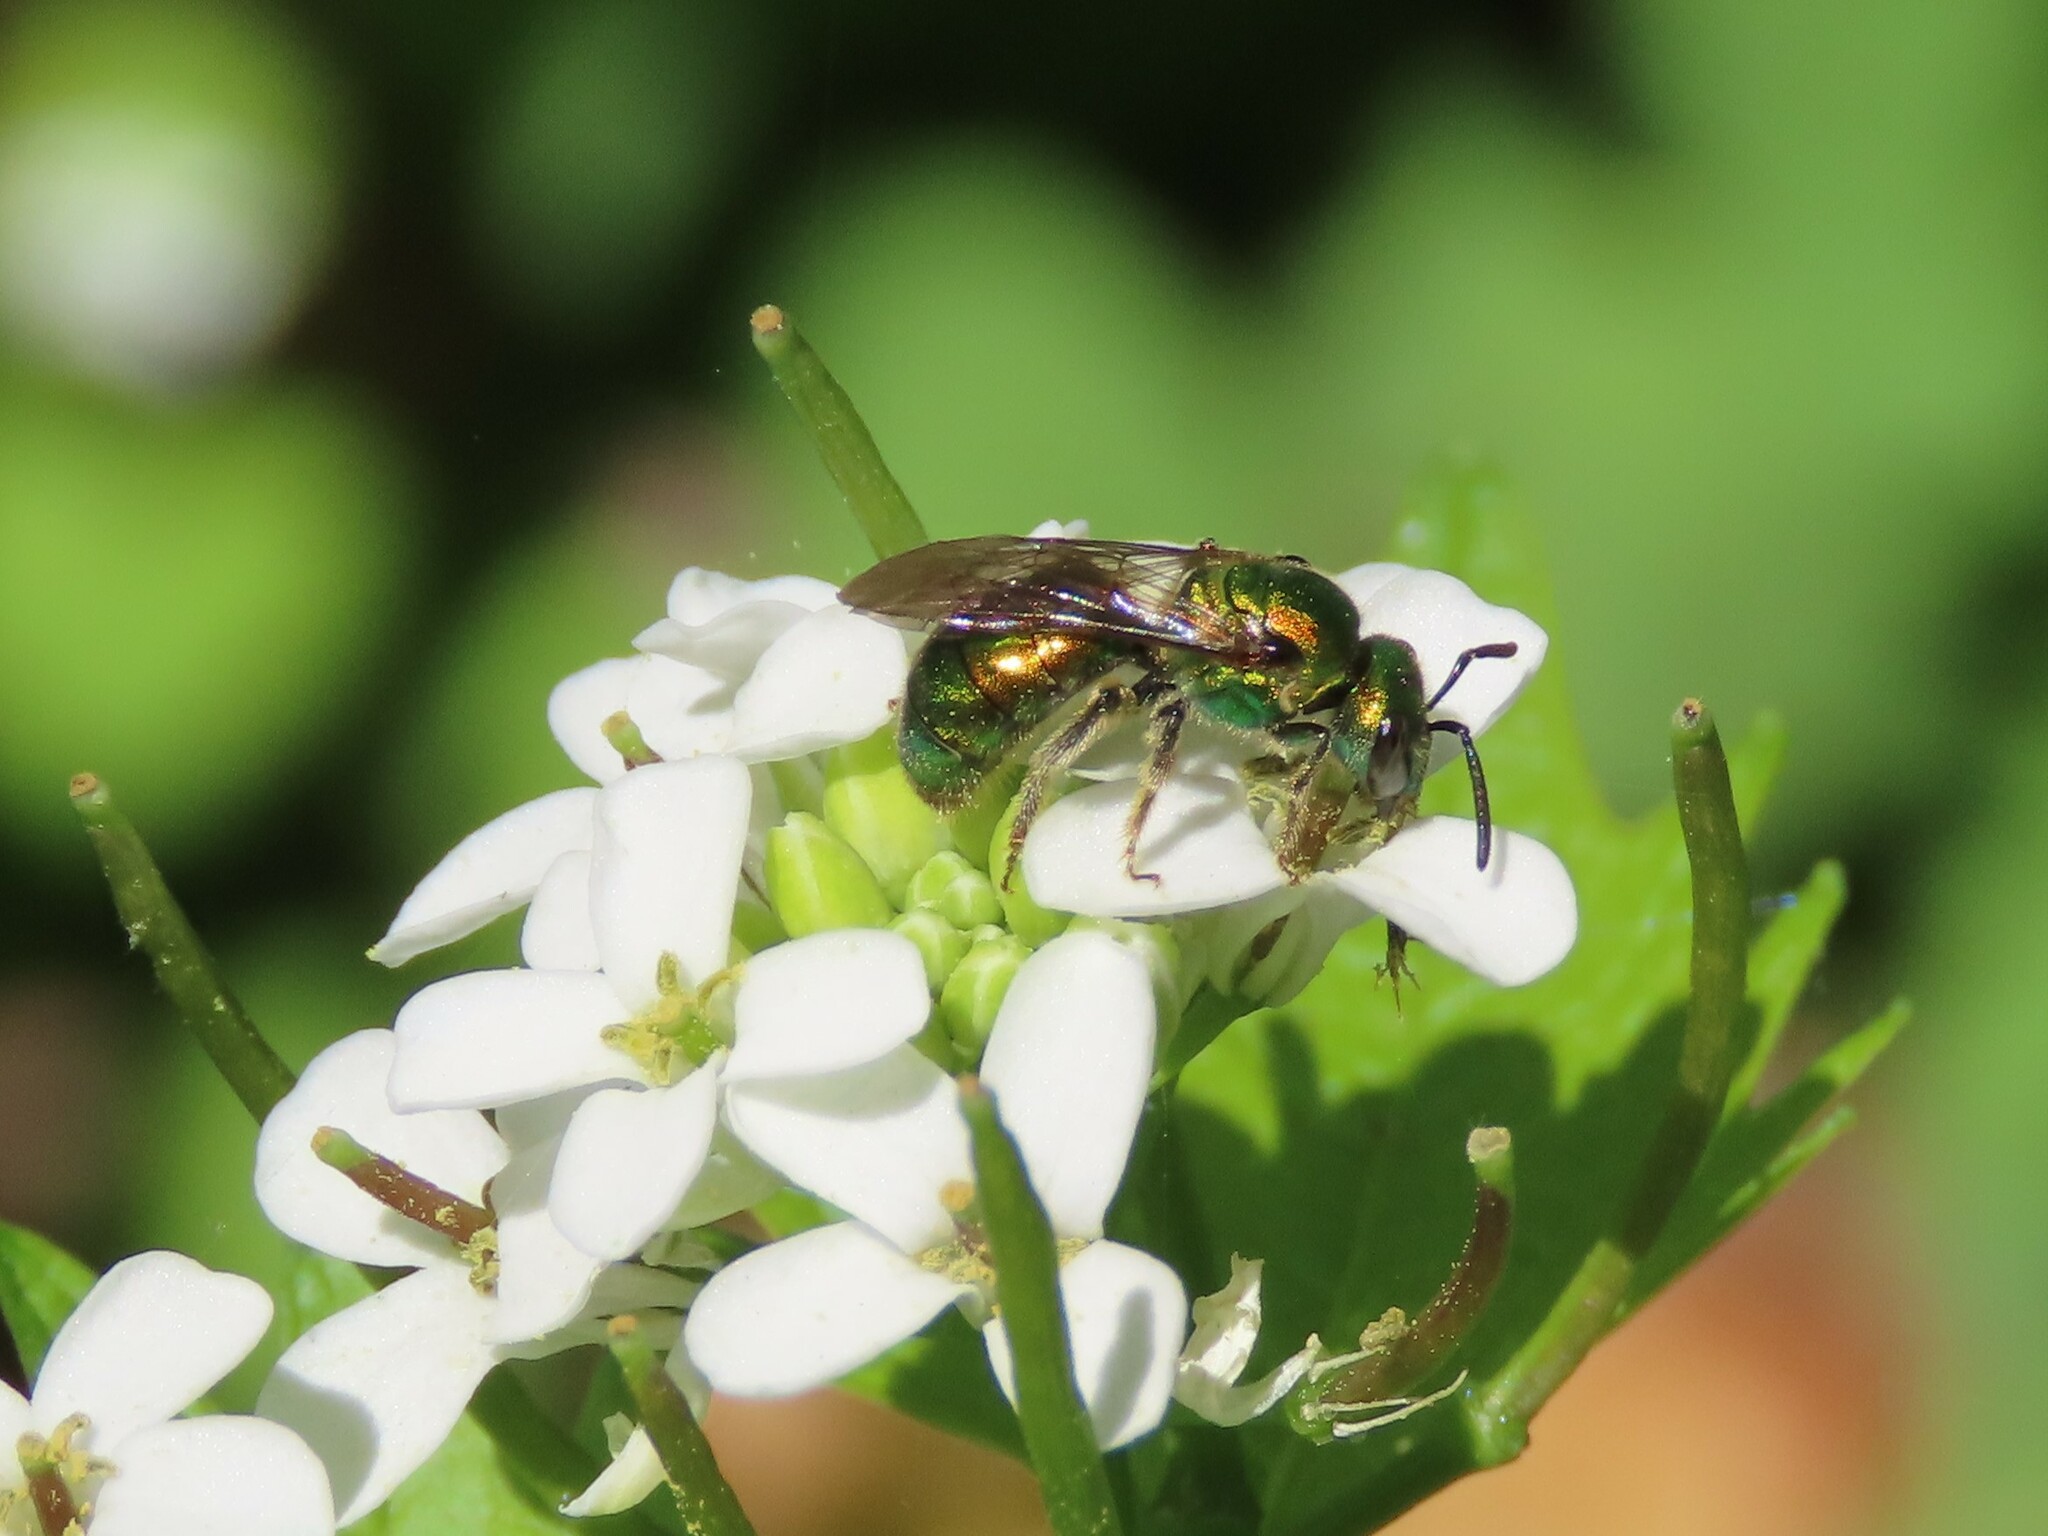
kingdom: Animalia
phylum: Arthropoda
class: Insecta
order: Hymenoptera
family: Halictidae
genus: Augochlora
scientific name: Augochlora pura
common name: Pure green sweat bee
